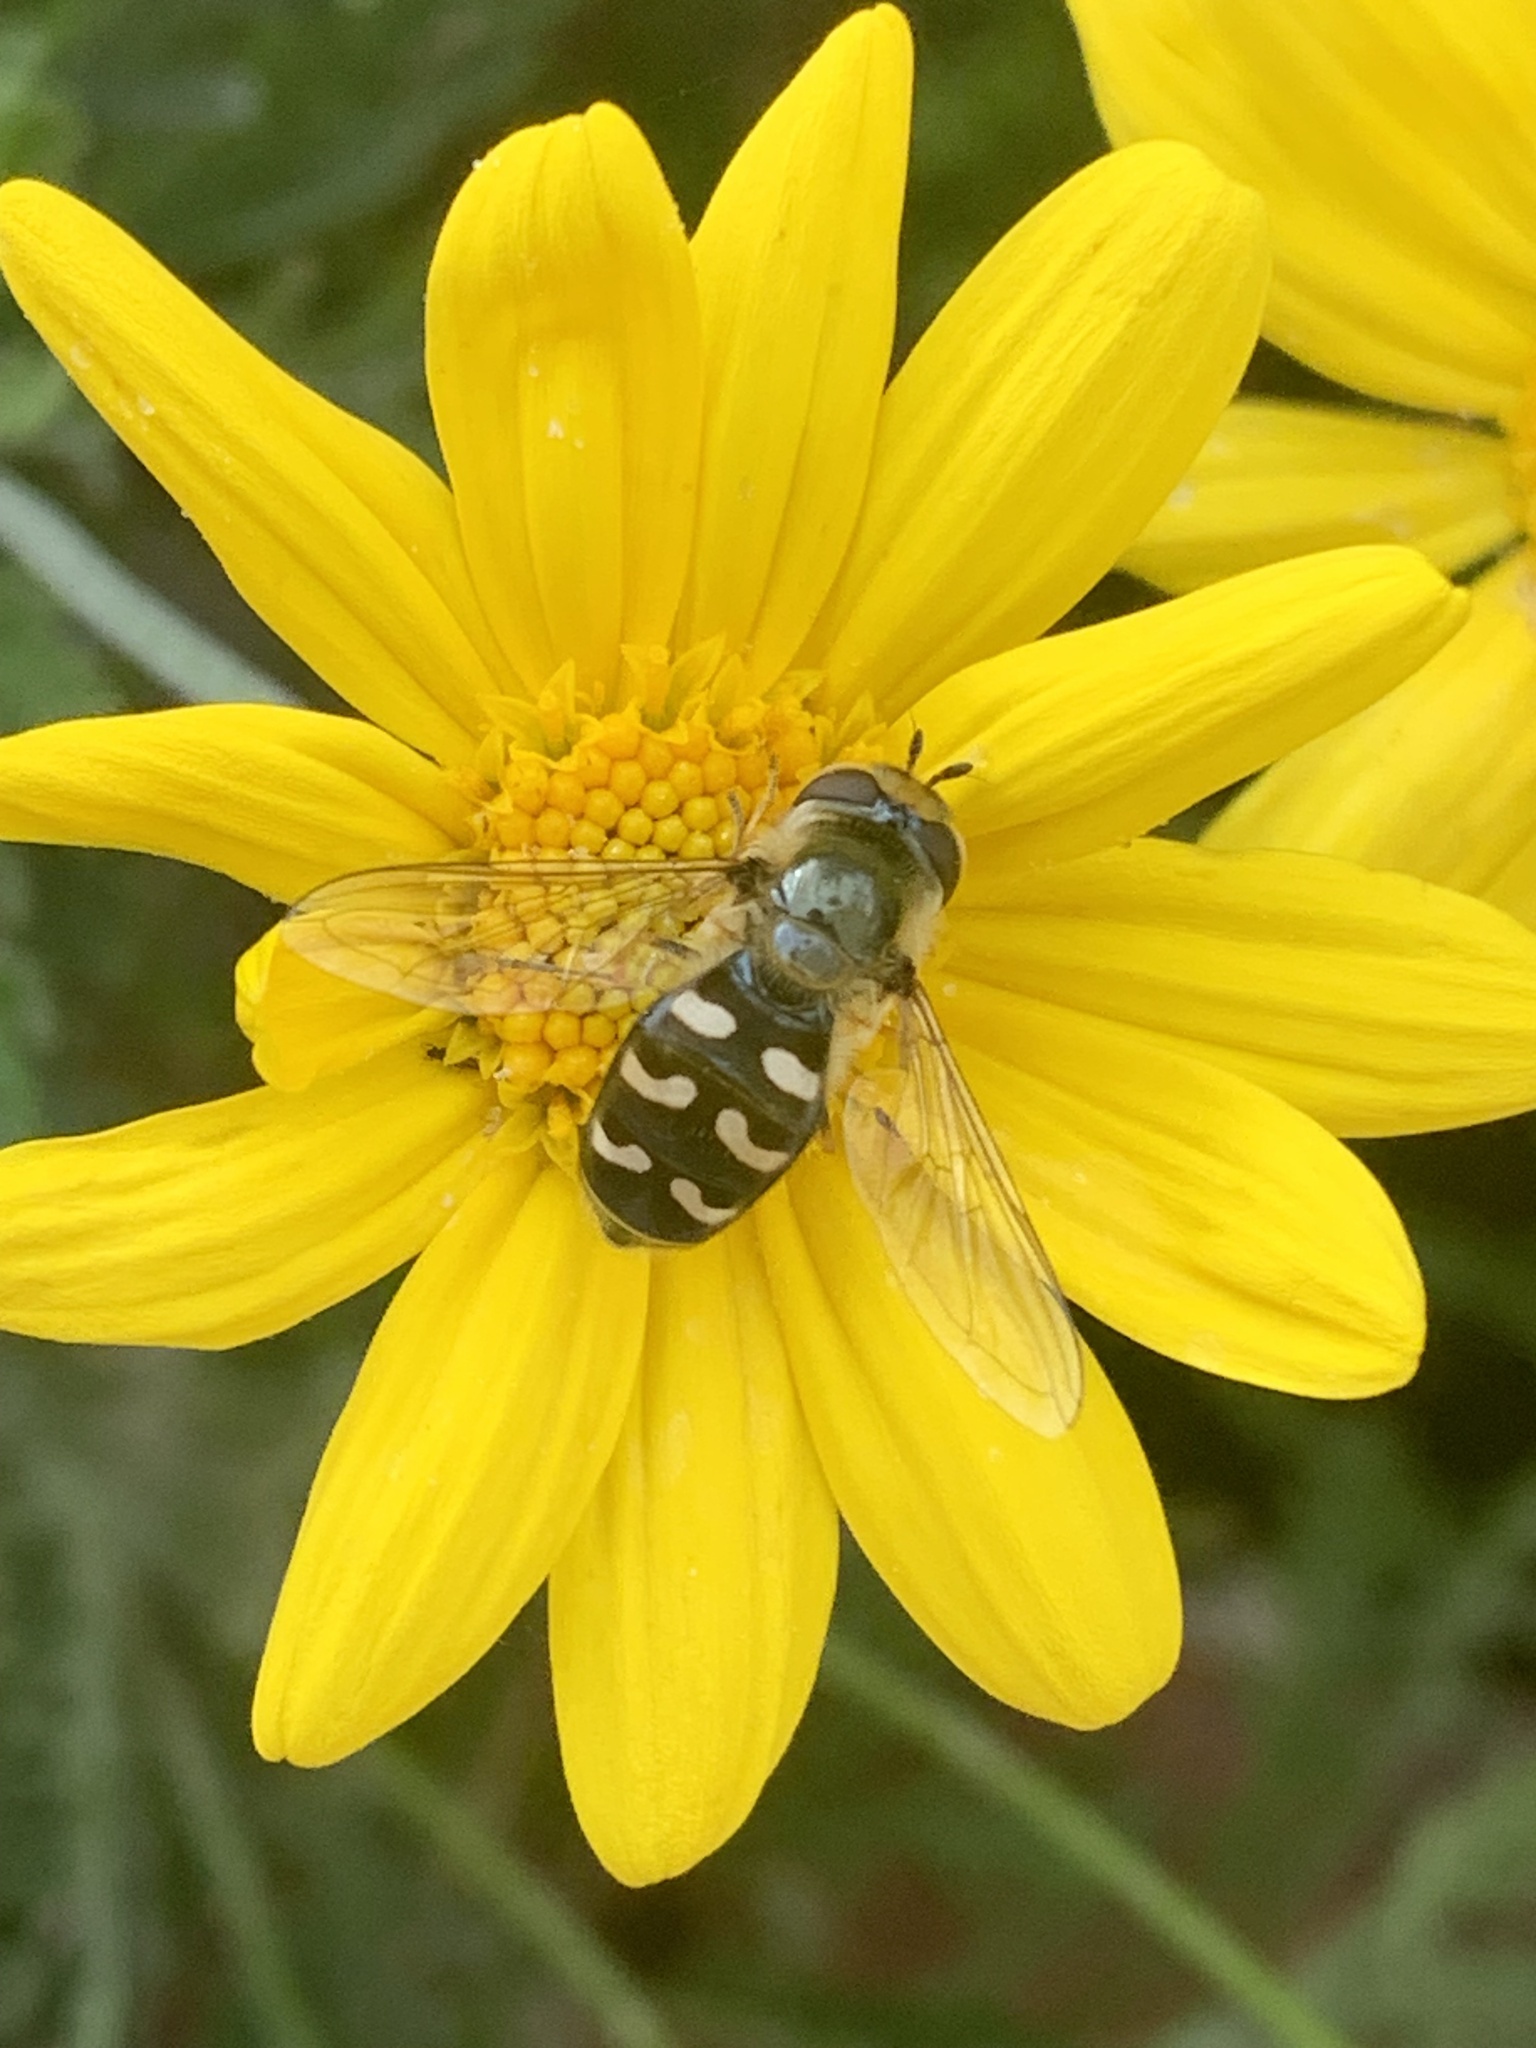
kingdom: Animalia
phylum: Arthropoda
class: Insecta
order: Diptera
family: Syrphidae
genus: Scaeva
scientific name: Scaeva pyrastri
